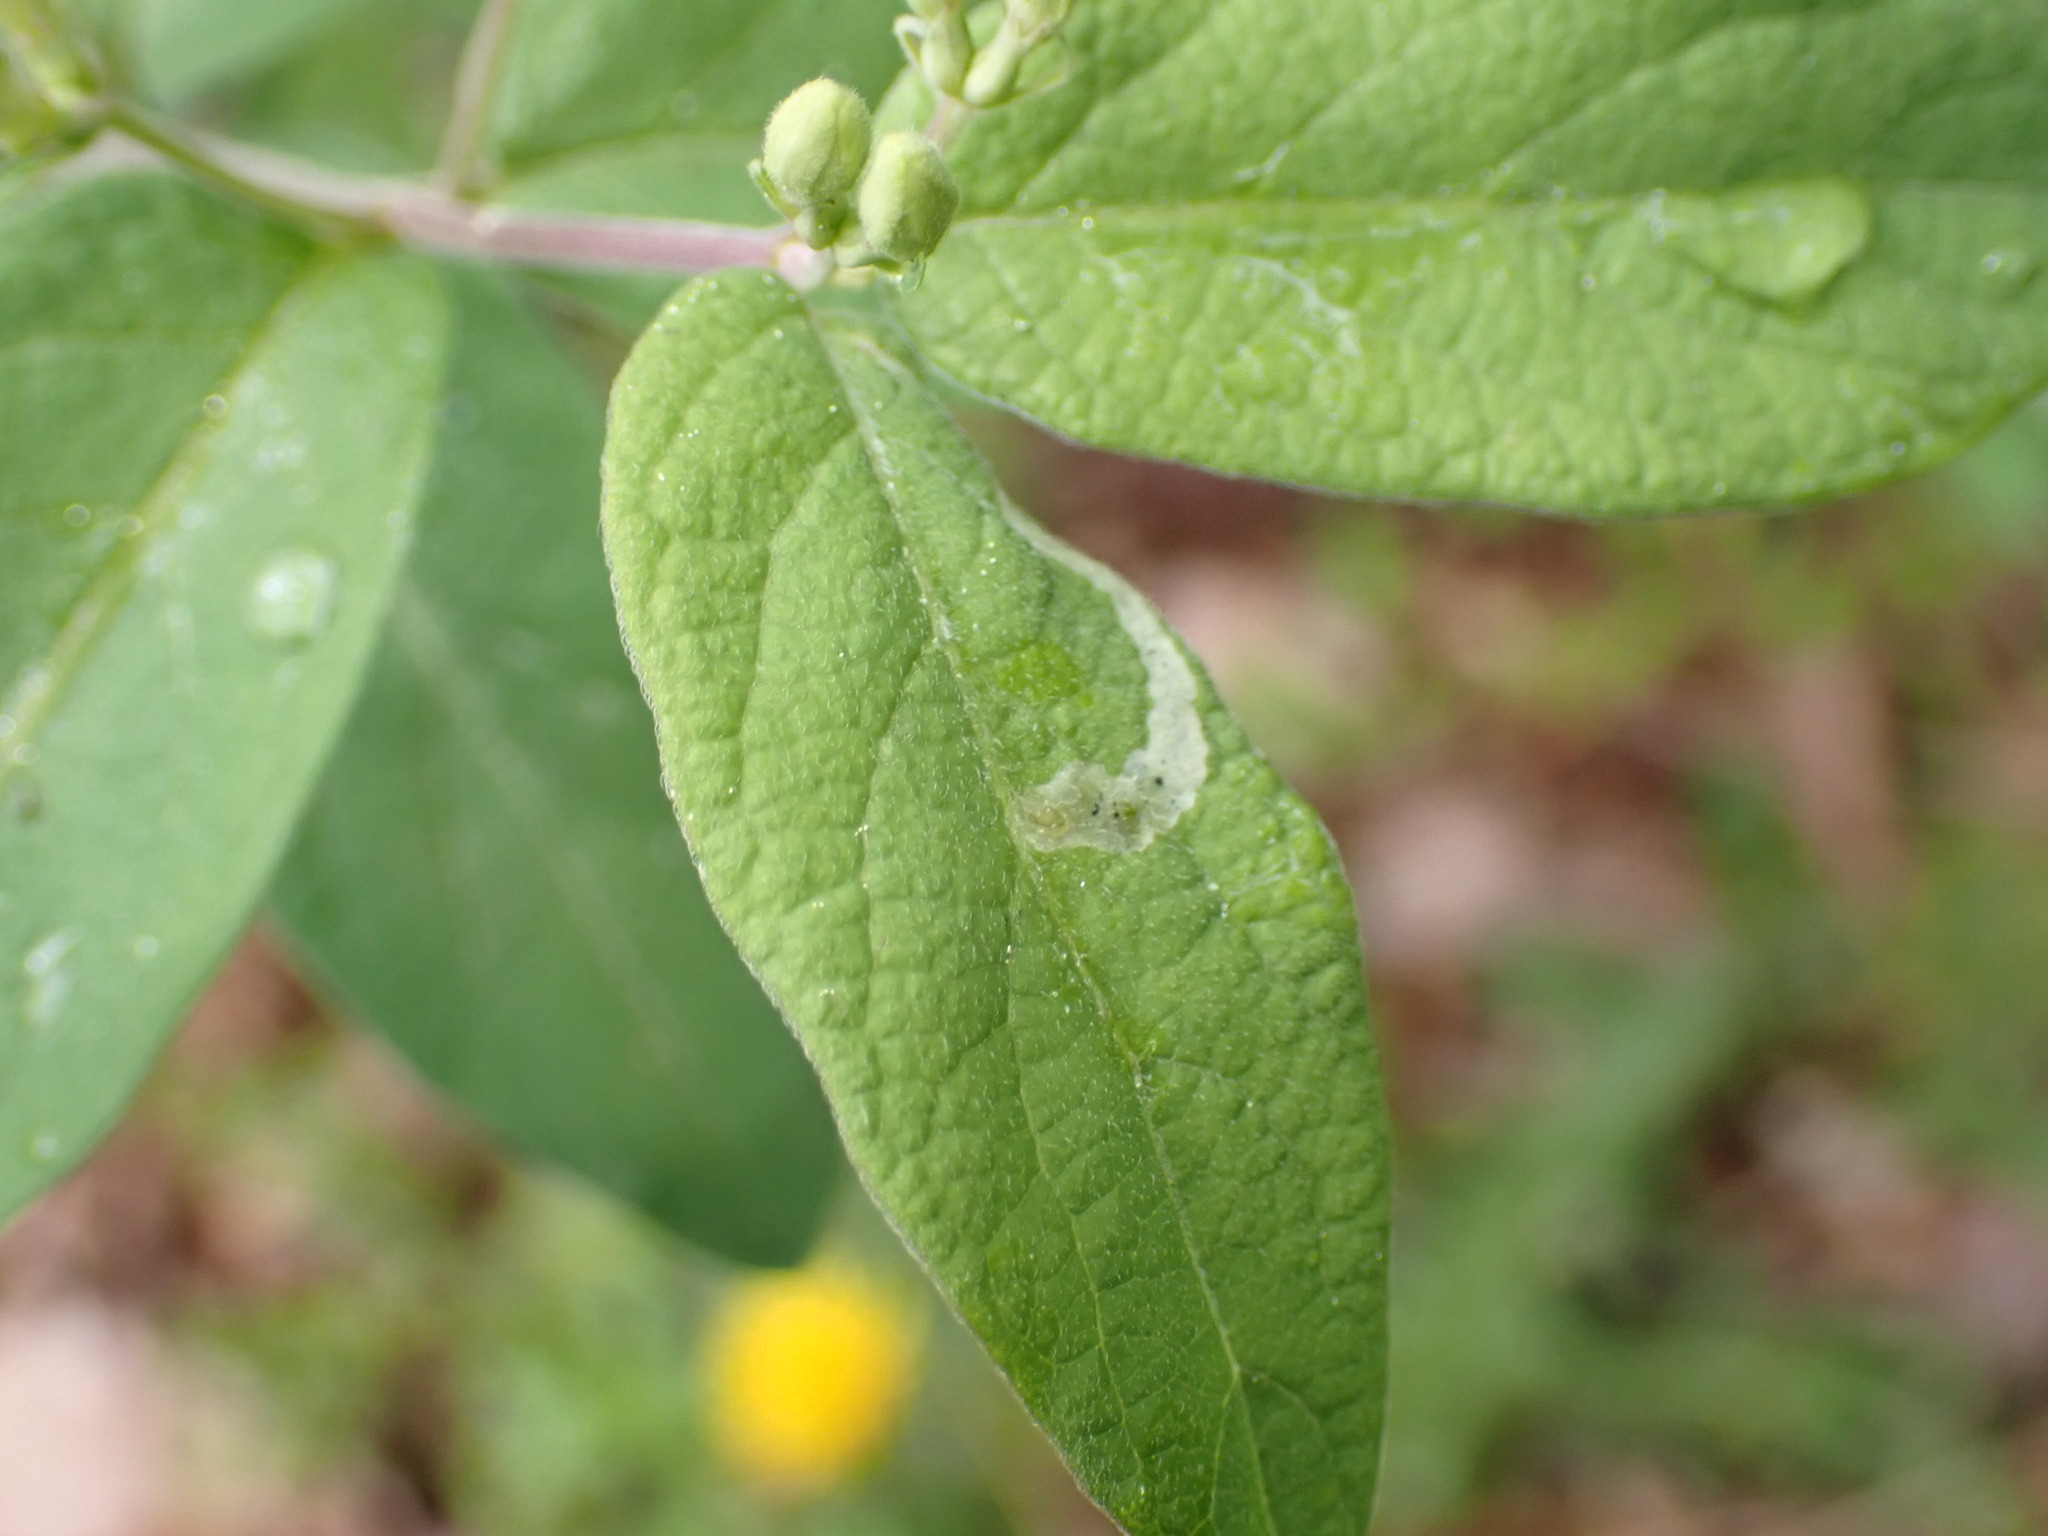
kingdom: Animalia
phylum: Arthropoda
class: Insecta
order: Diptera
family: Agromyzidae
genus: Aulagromyza
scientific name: Aulagromyza cornigera
